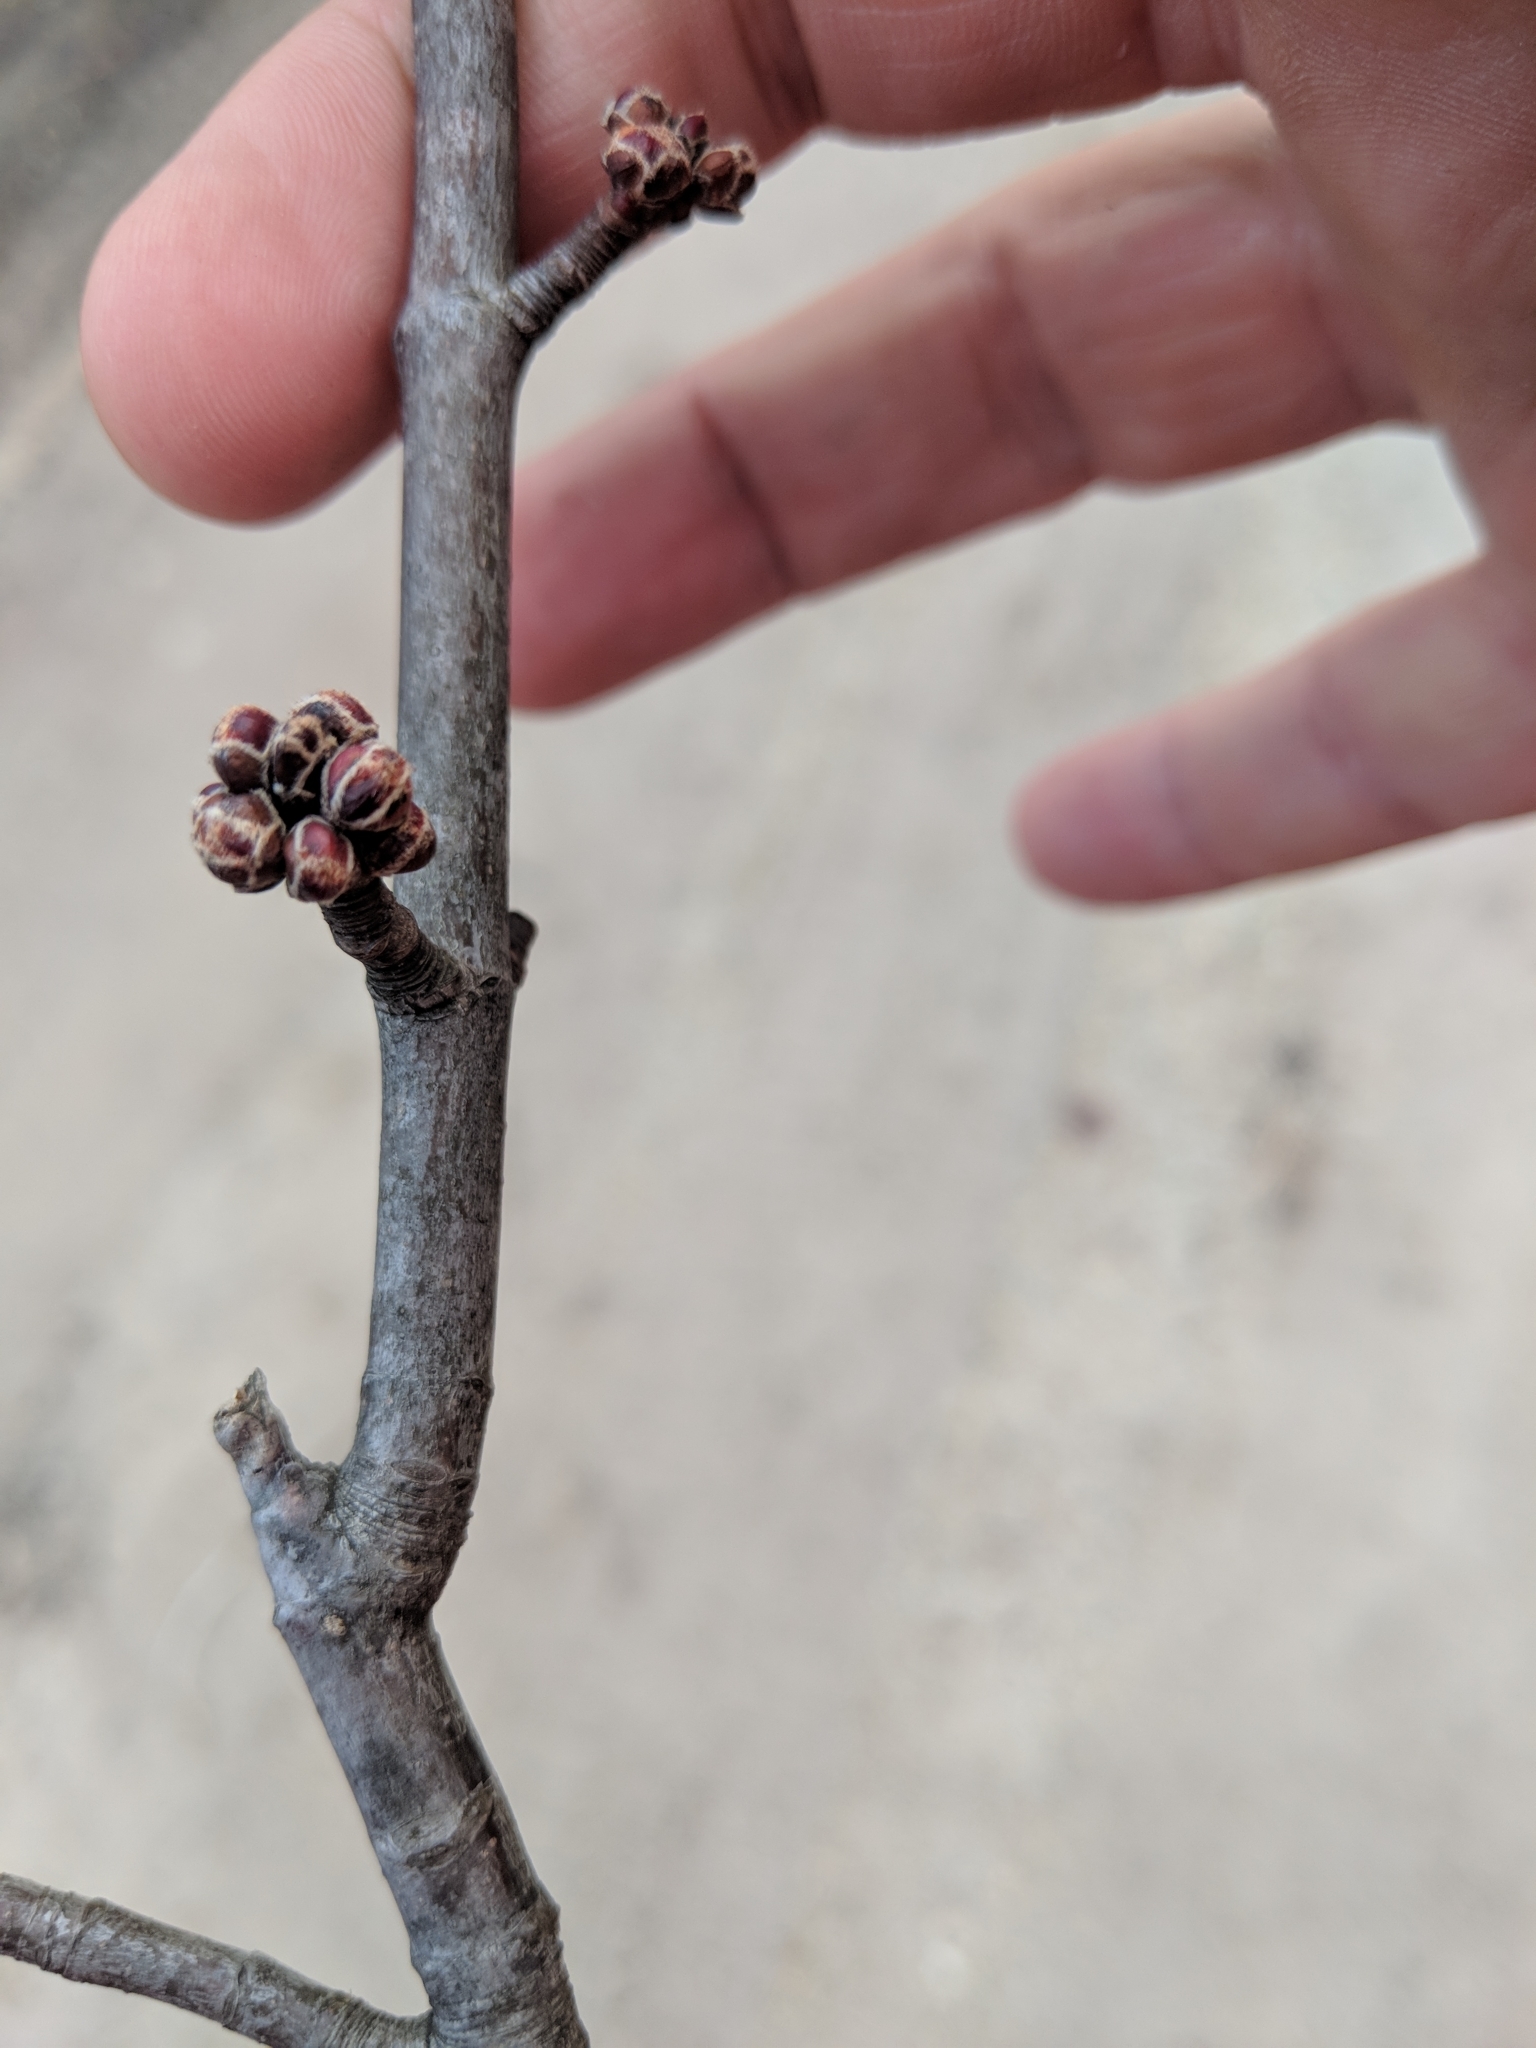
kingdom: Plantae
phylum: Tracheophyta
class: Magnoliopsida
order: Sapindales
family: Sapindaceae
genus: Acer
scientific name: Acer saccharinum
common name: Silver maple
